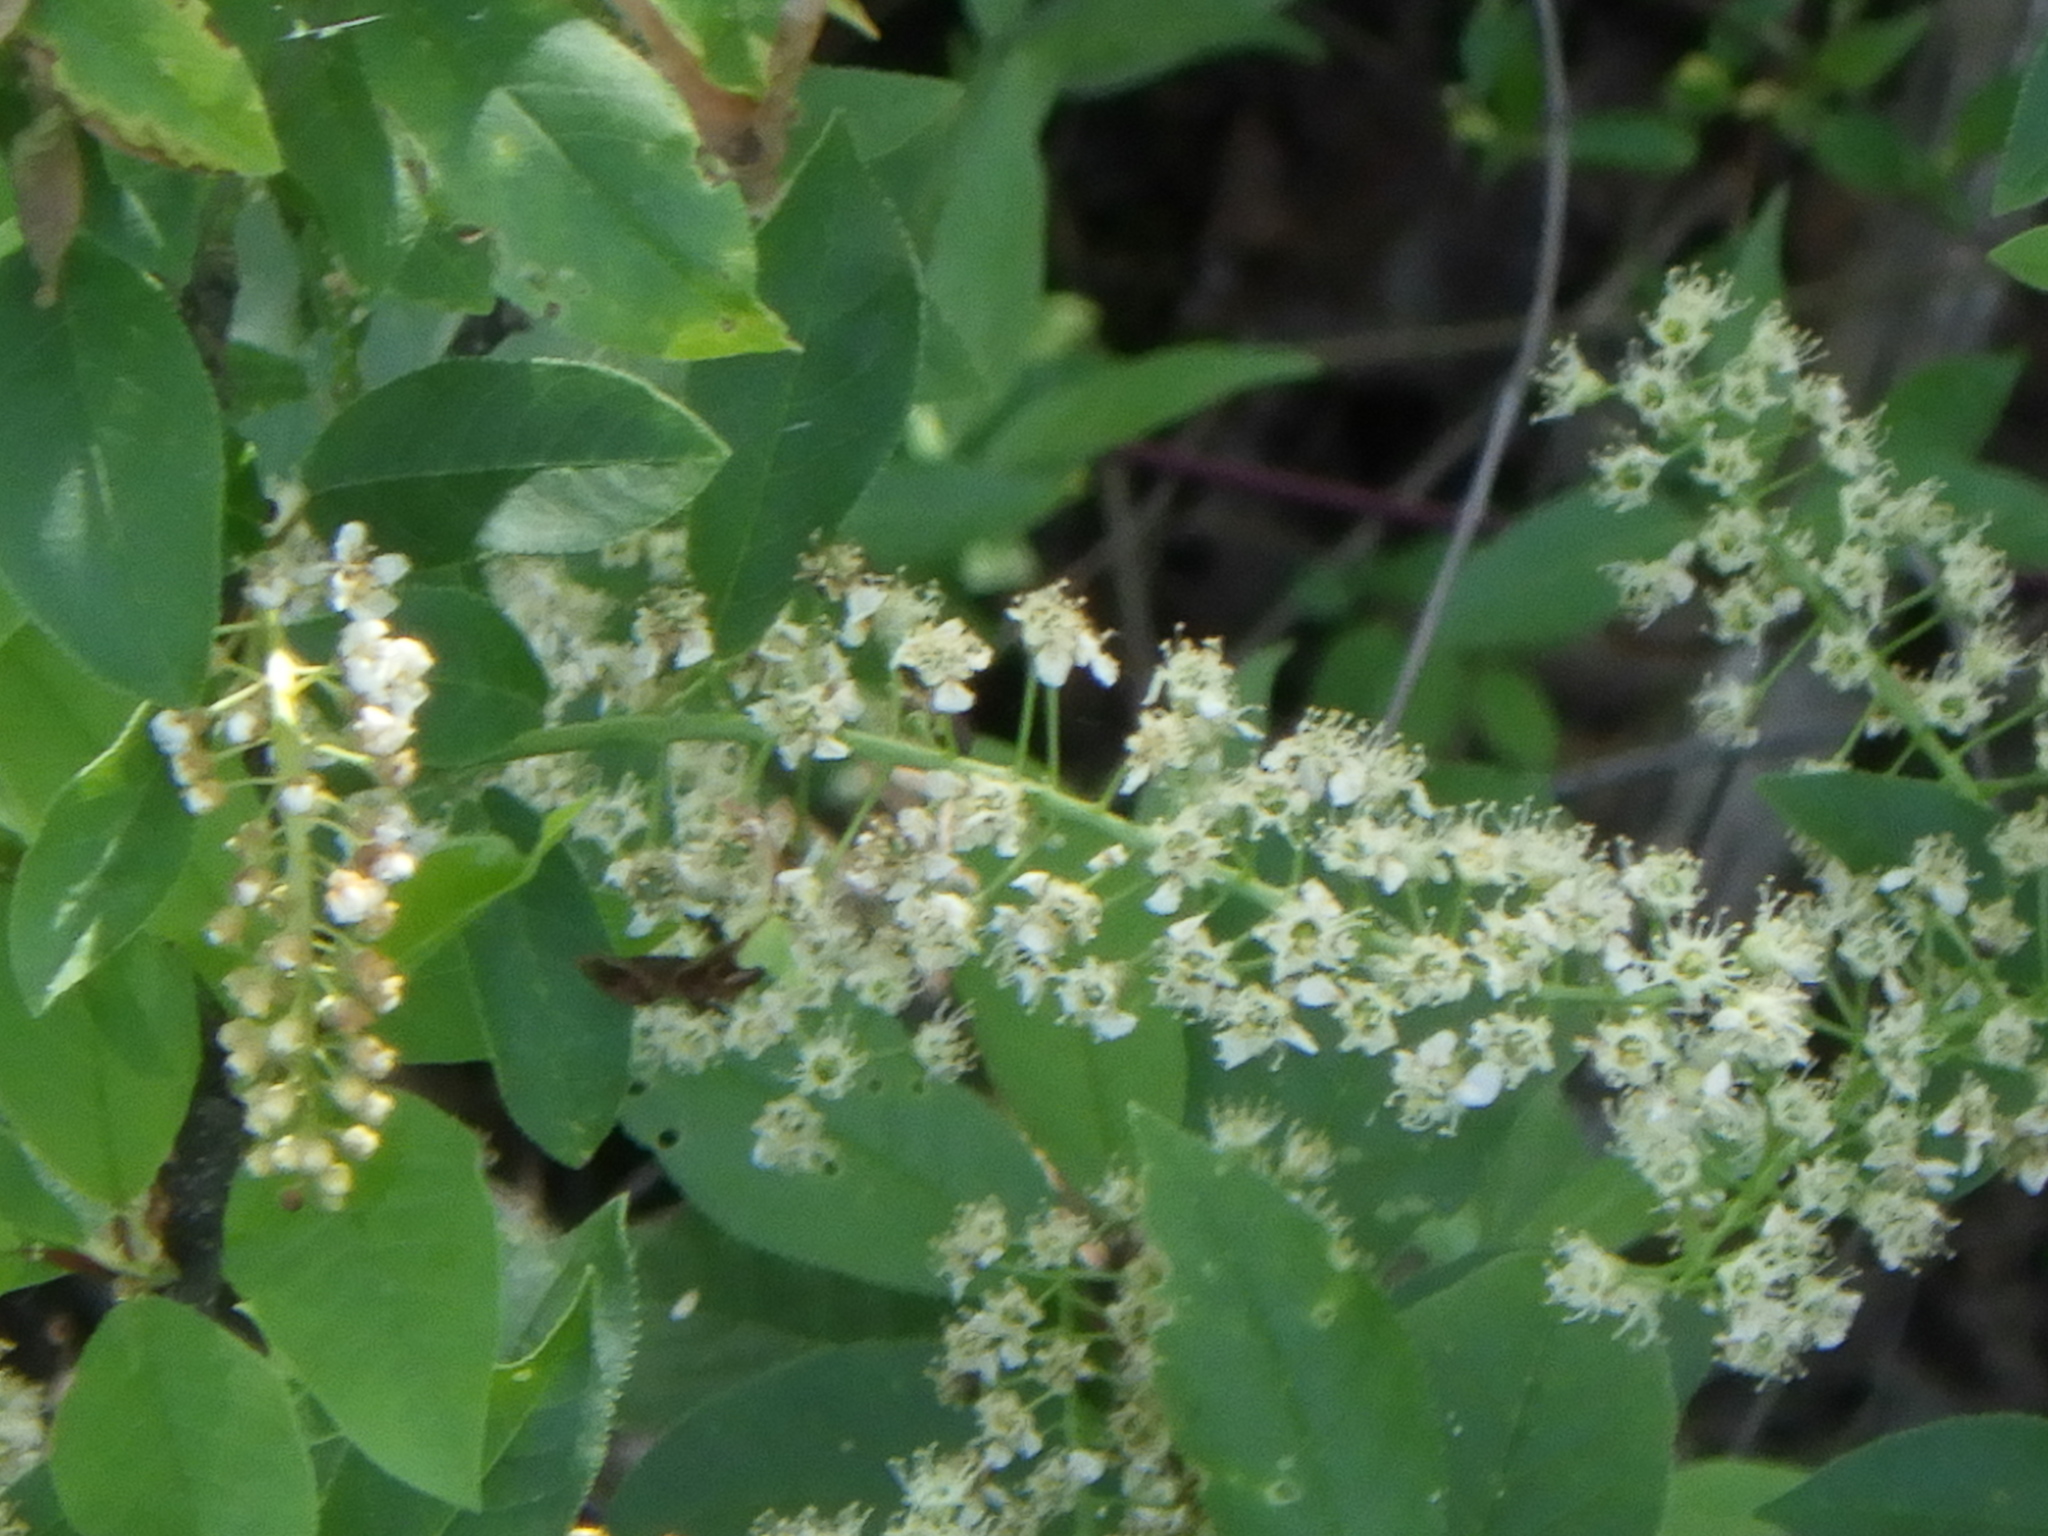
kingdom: Plantae
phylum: Tracheophyta
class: Magnoliopsida
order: Rosales
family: Rosaceae
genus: Prunus
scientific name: Prunus padus
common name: Bird cherry
